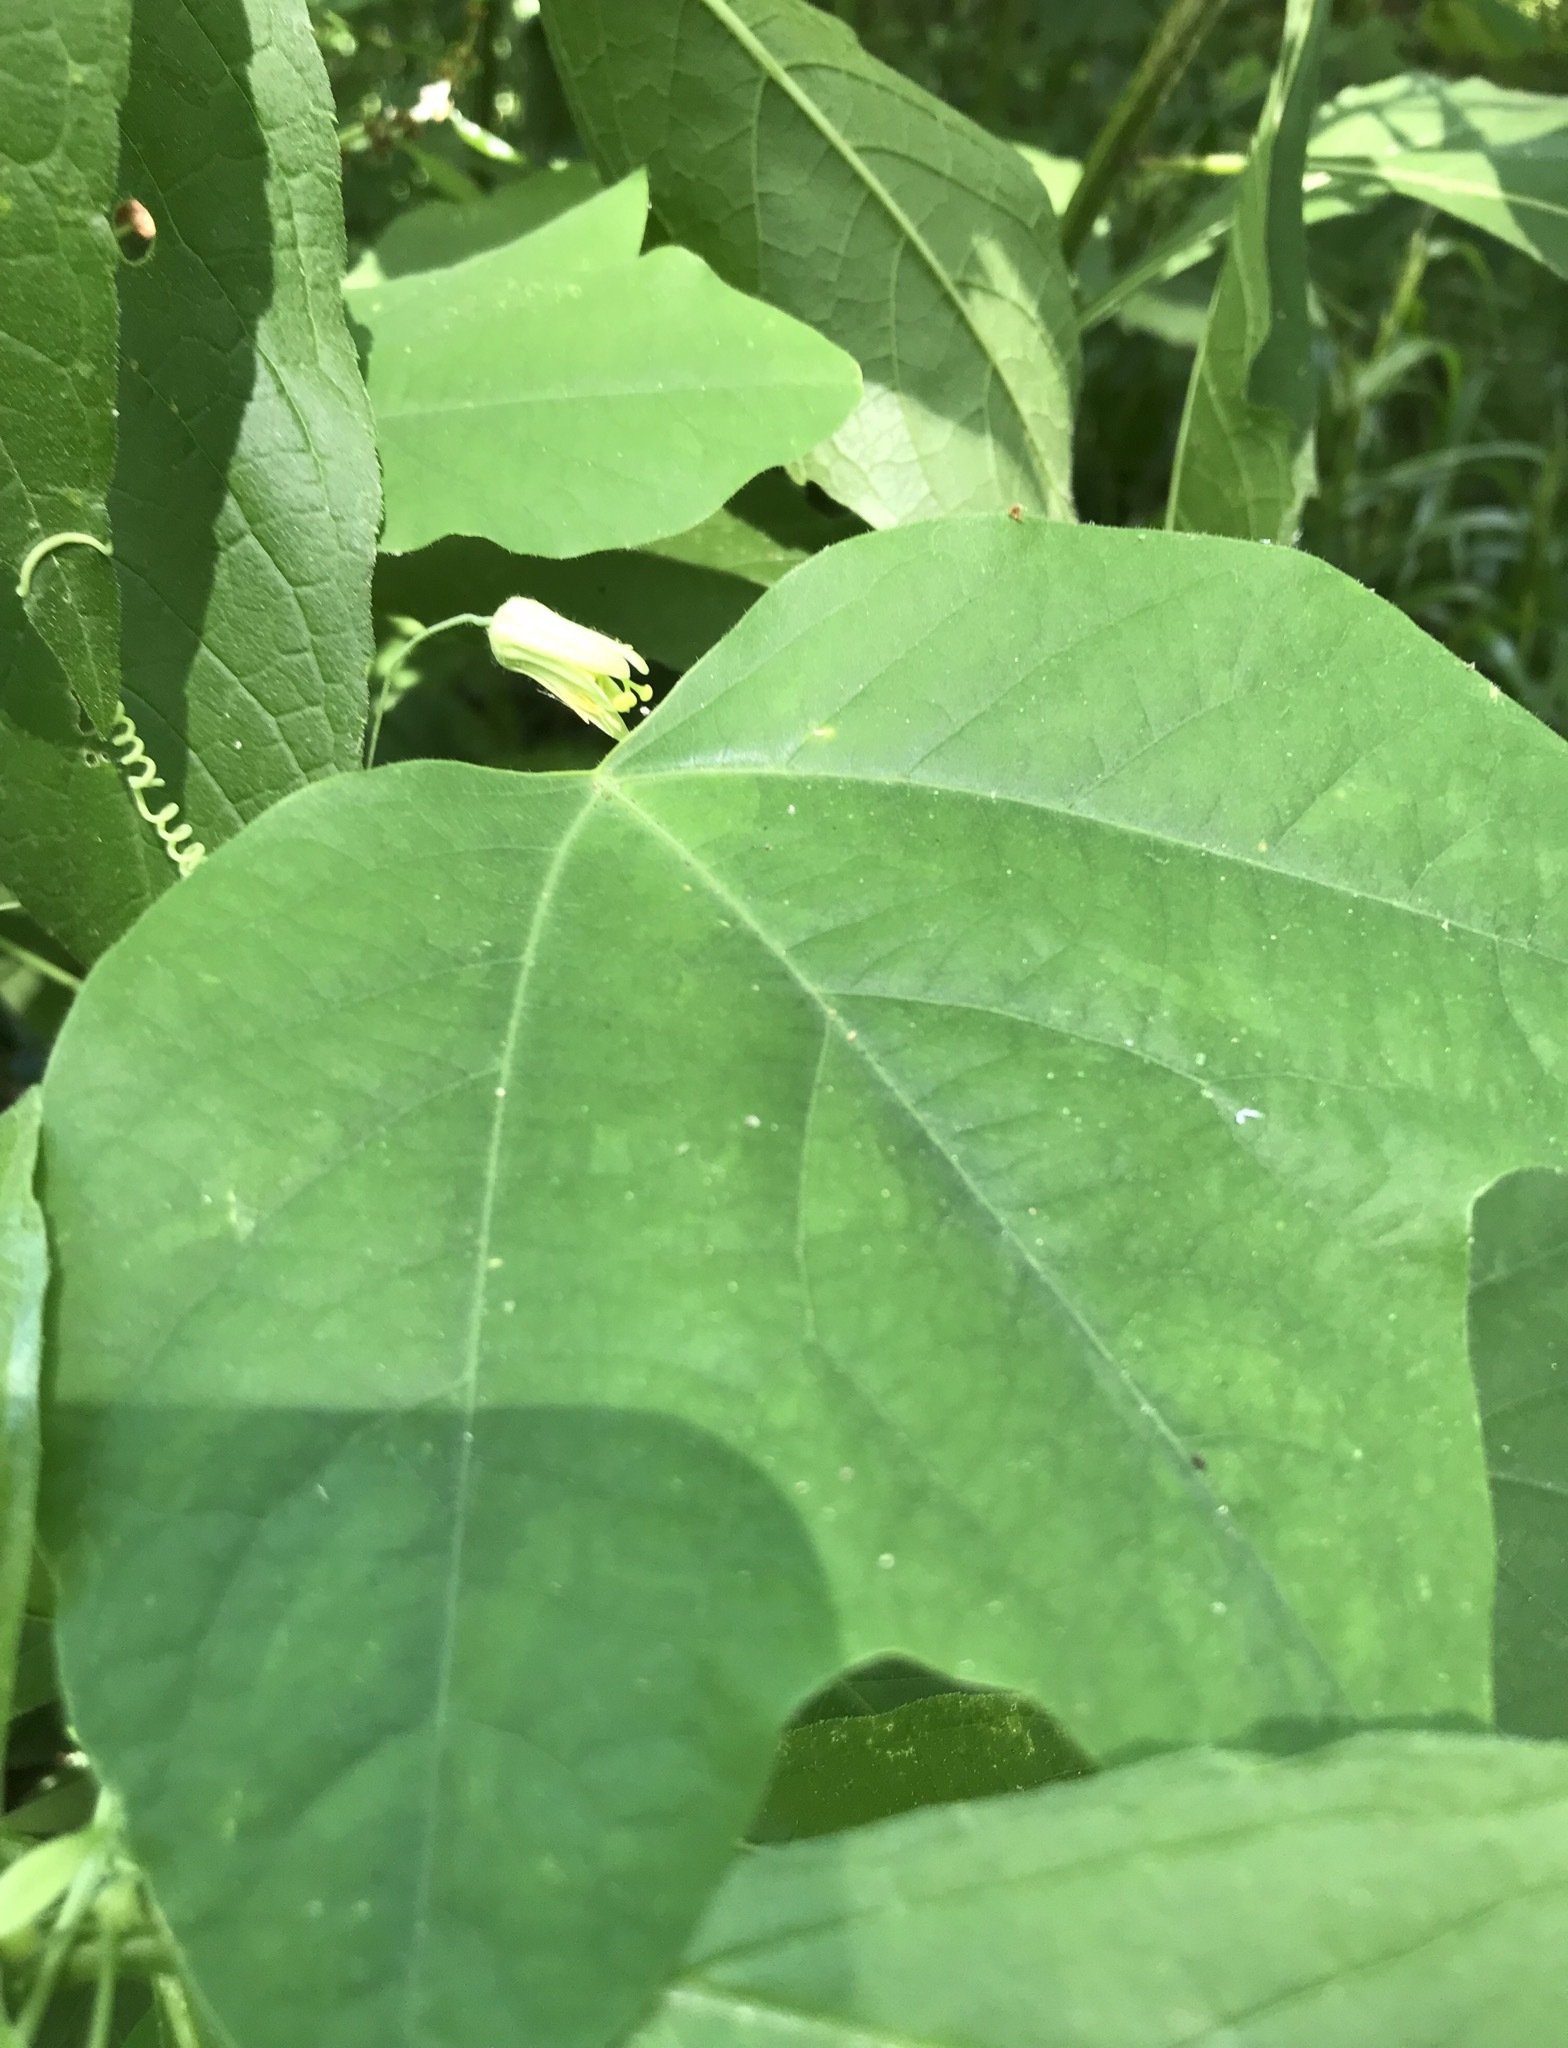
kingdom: Plantae
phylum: Tracheophyta
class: Magnoliopsida
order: Malpighiales
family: Passifloraceae
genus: Passiflora
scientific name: Passiflora lutea
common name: Yellow passionflower
